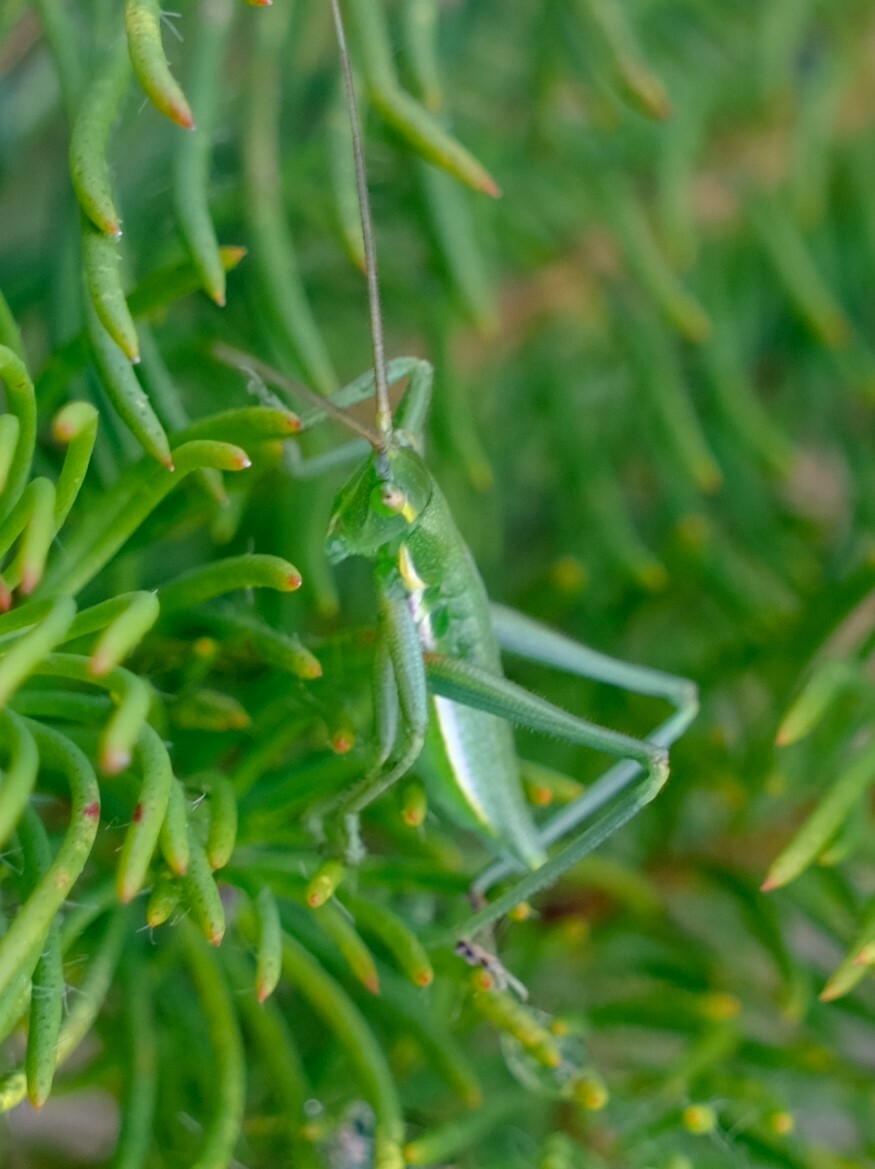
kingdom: Animalia
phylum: Arthropoda
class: Insecta
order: Orthoptera
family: Tettigoniidae
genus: Hemisaga
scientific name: Hemisaga denticulata
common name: Common sluggish katydid
